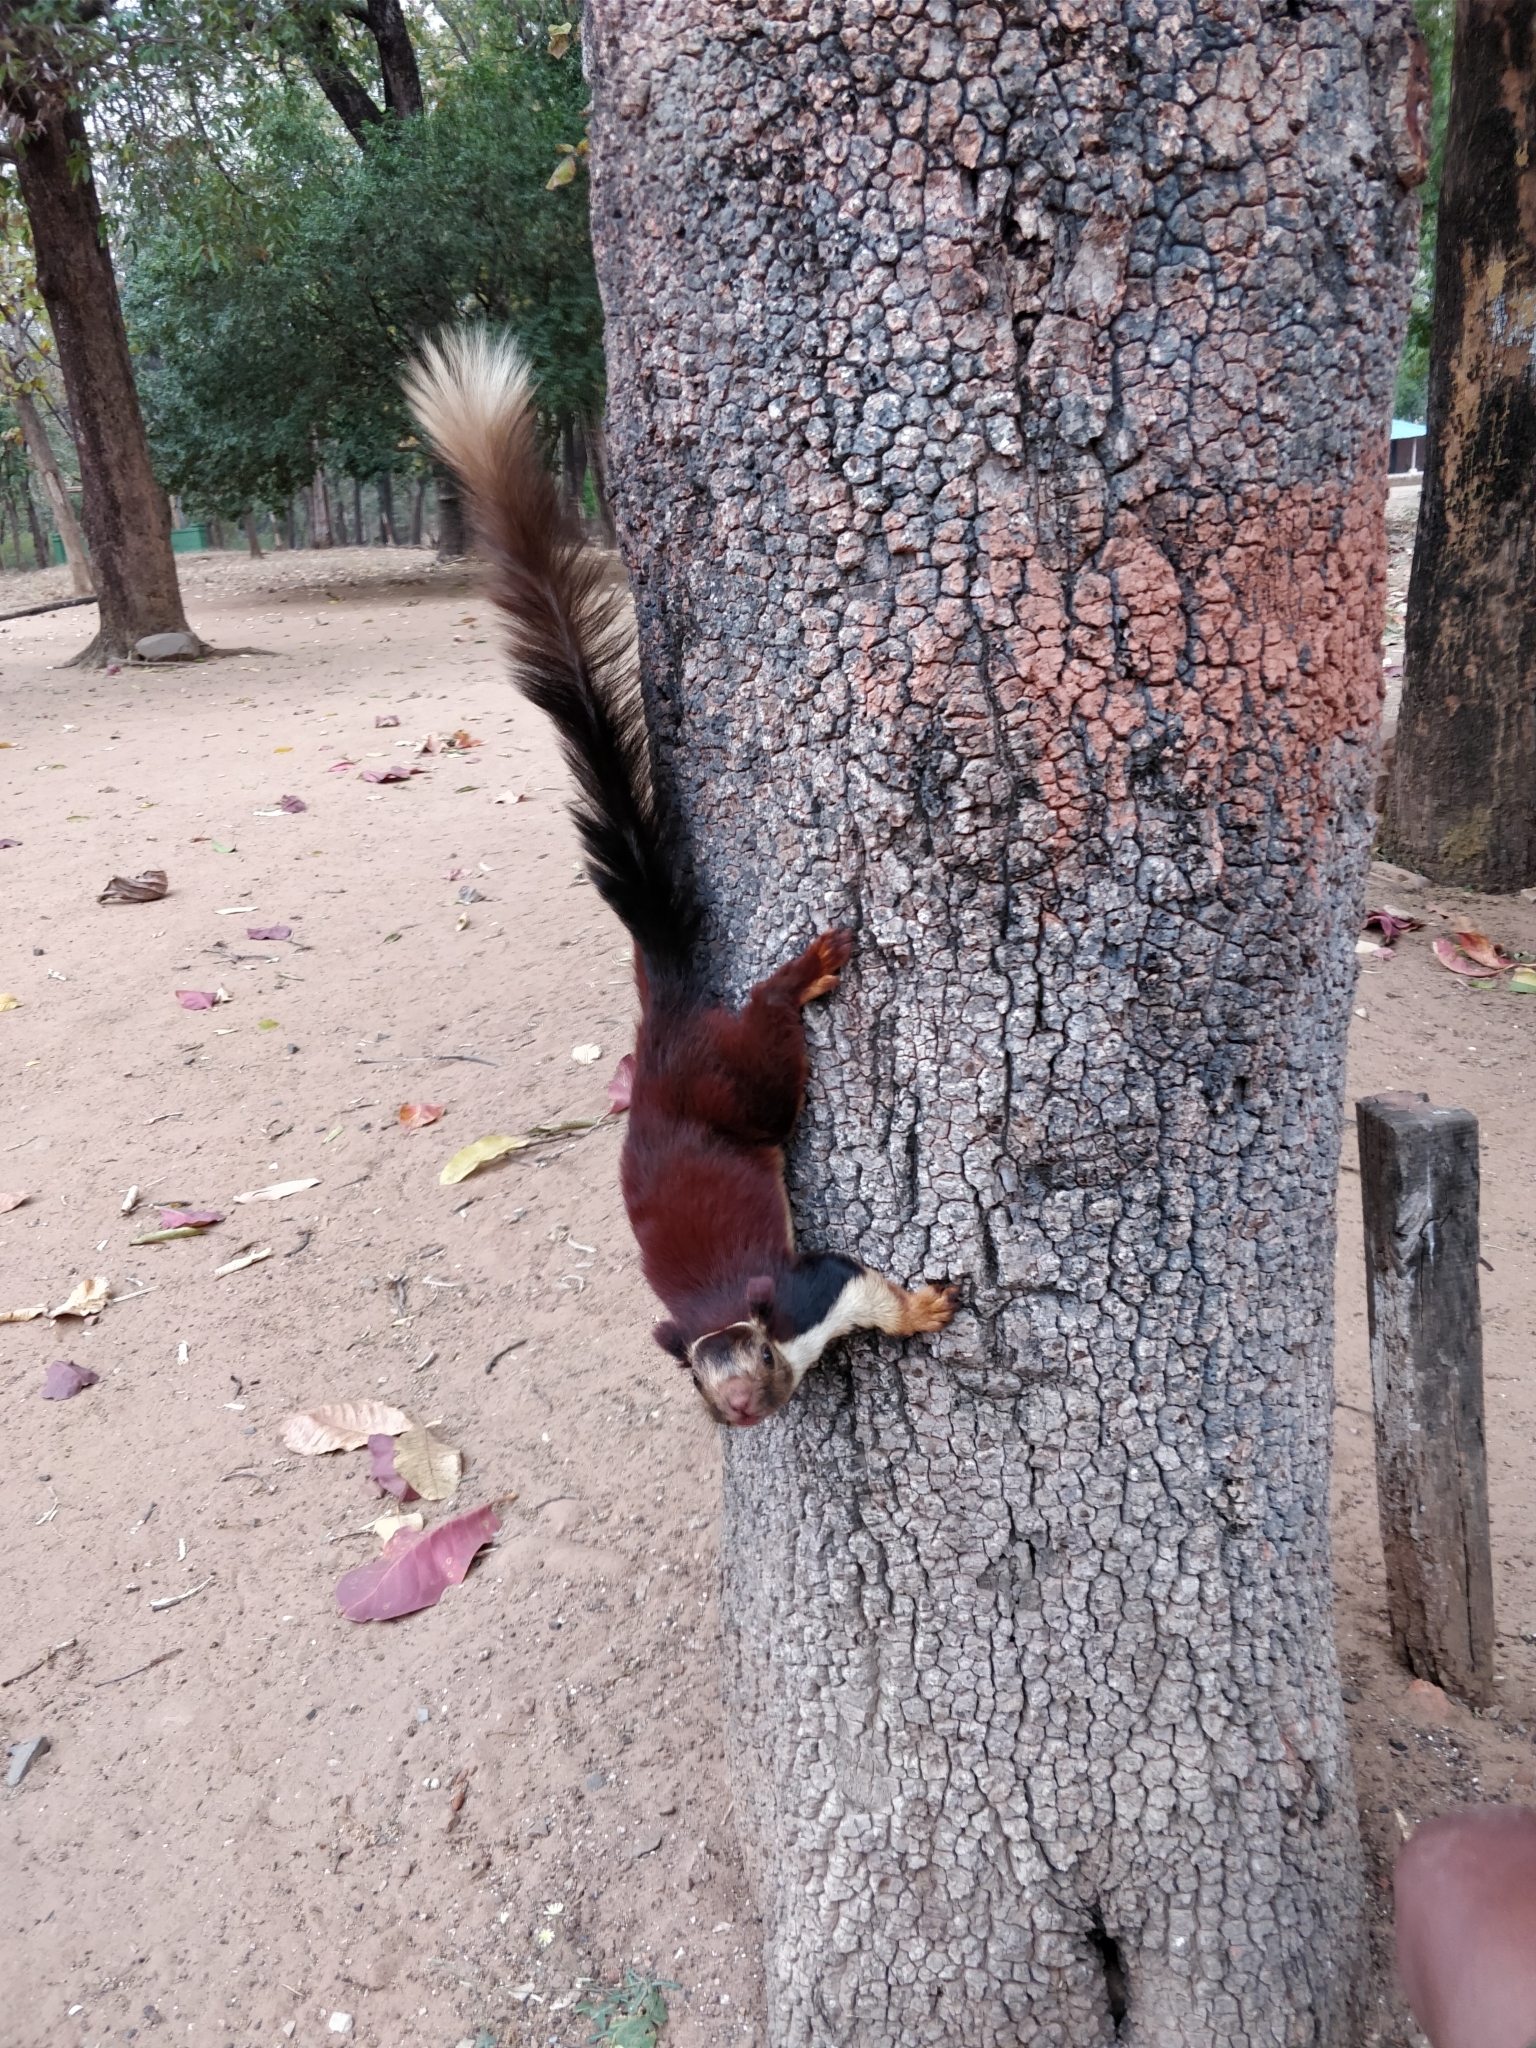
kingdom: Animalia
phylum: Chordata
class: Mammalia
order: Rodentia
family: Sciuridae
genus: Ratufa
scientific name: Ratufa indica
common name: Indian giant squirrel
